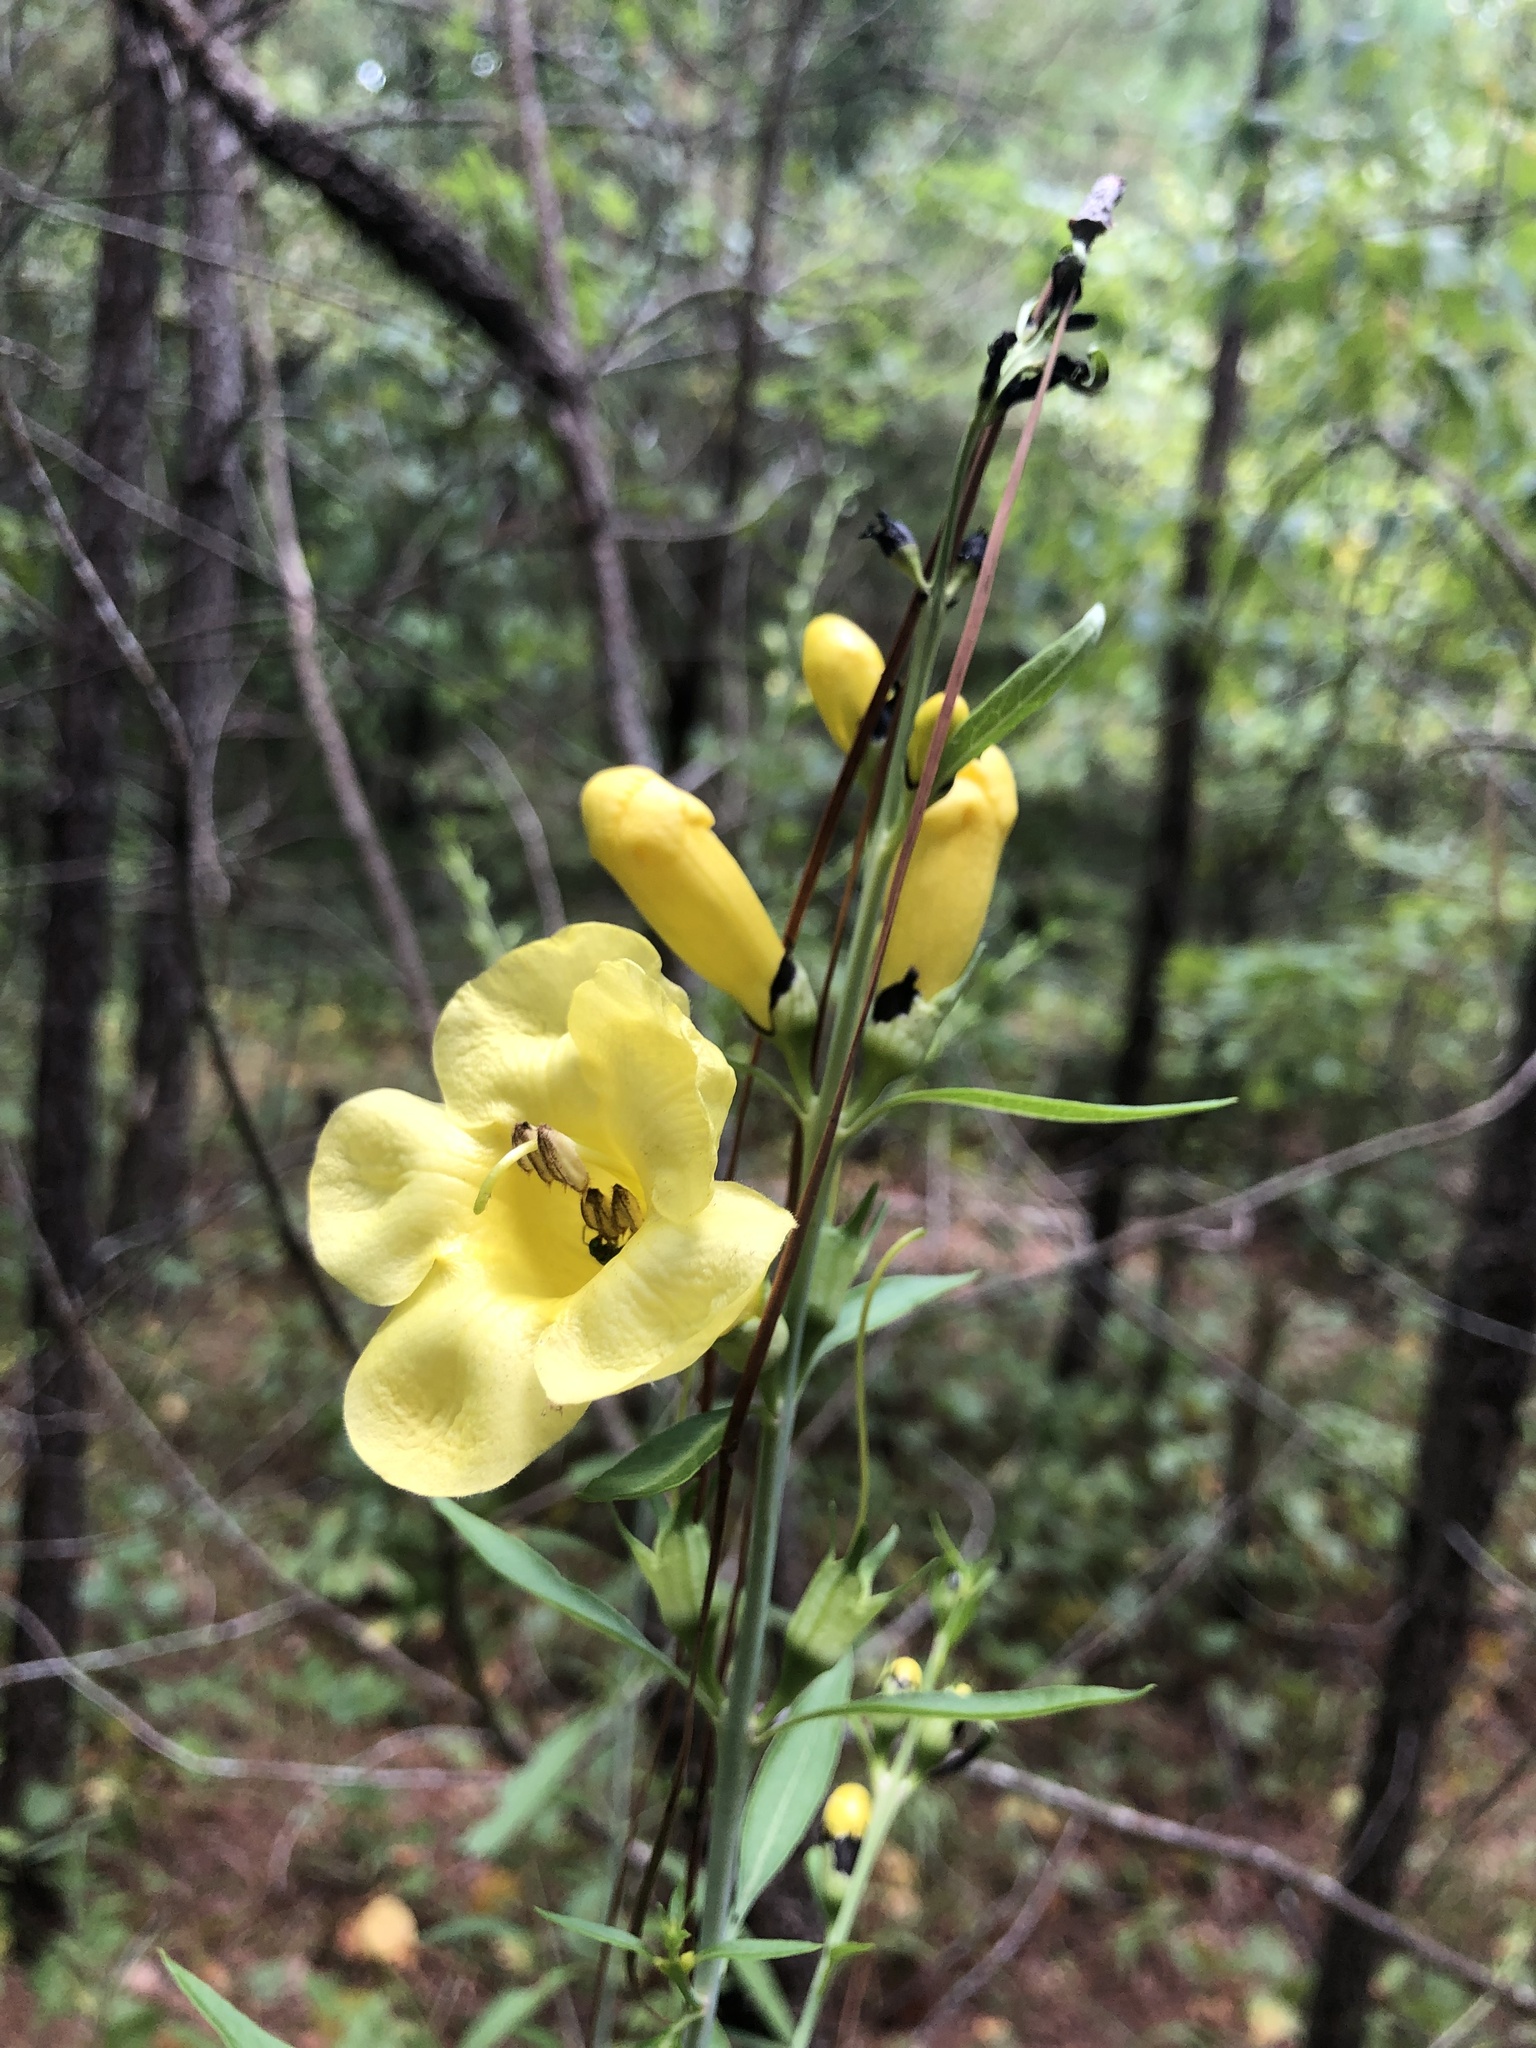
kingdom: Plantae
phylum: Tracheophyta
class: Magnoliopsida
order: Lamiales
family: Orobanchaceae
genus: Aureolaria
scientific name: Aureolaria flava
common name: Smooth false foxglove
